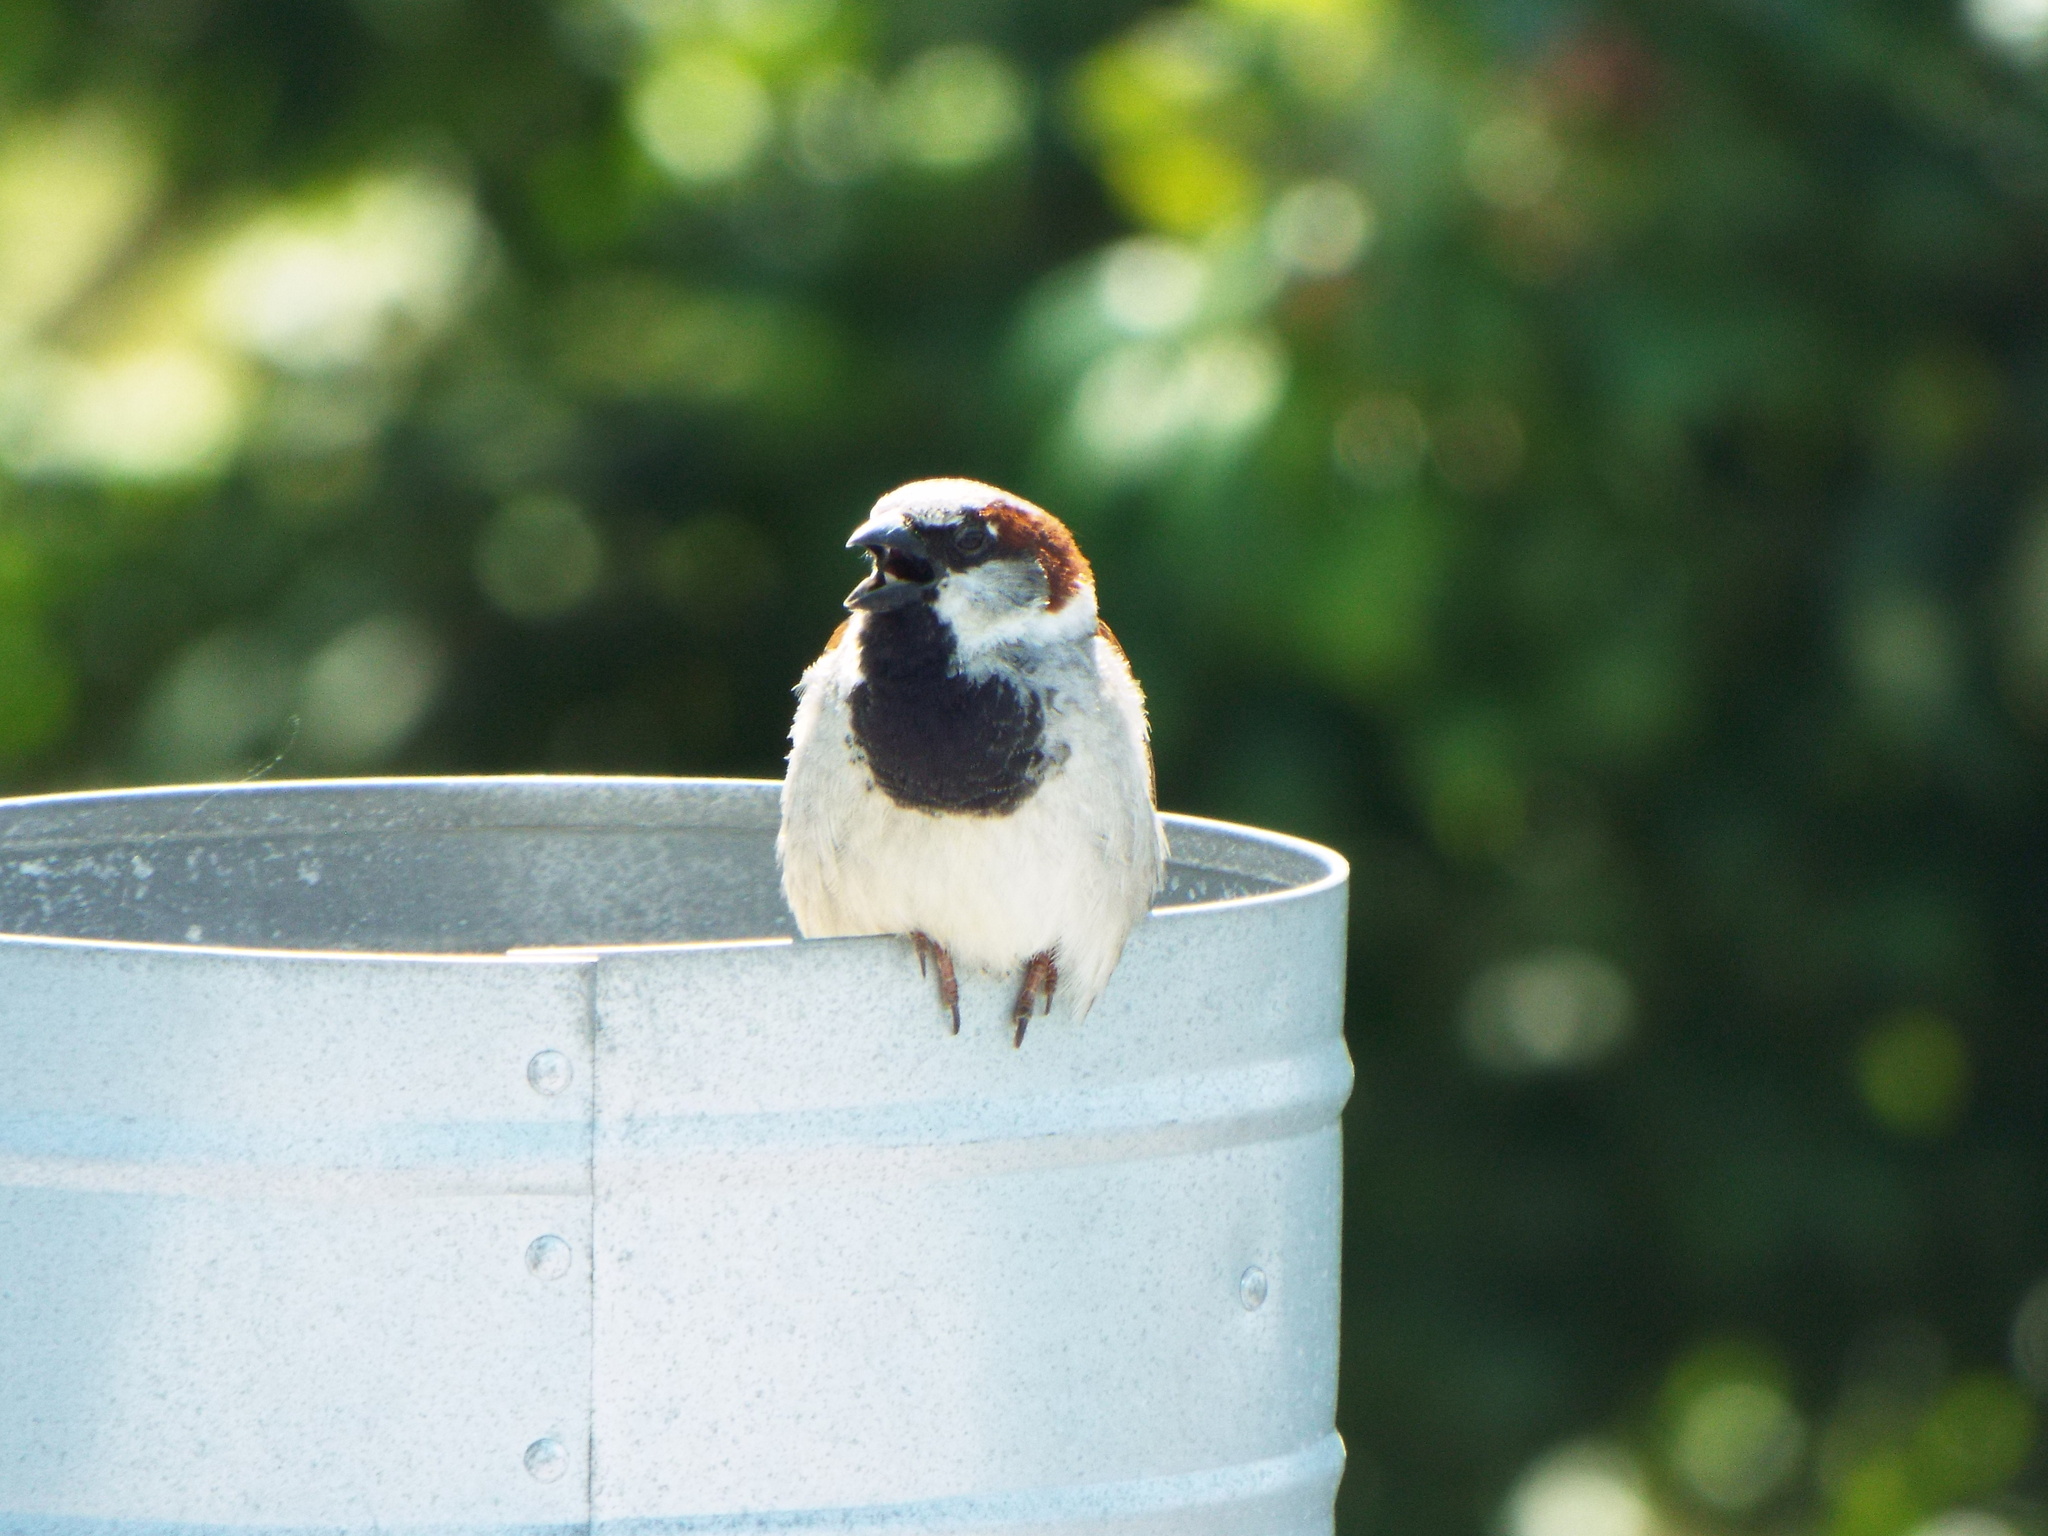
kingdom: Animalia
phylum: Chordata
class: Aves
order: Passeriformes
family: Passeridae
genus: Passer
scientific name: Passer domesticus
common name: House sparrow
